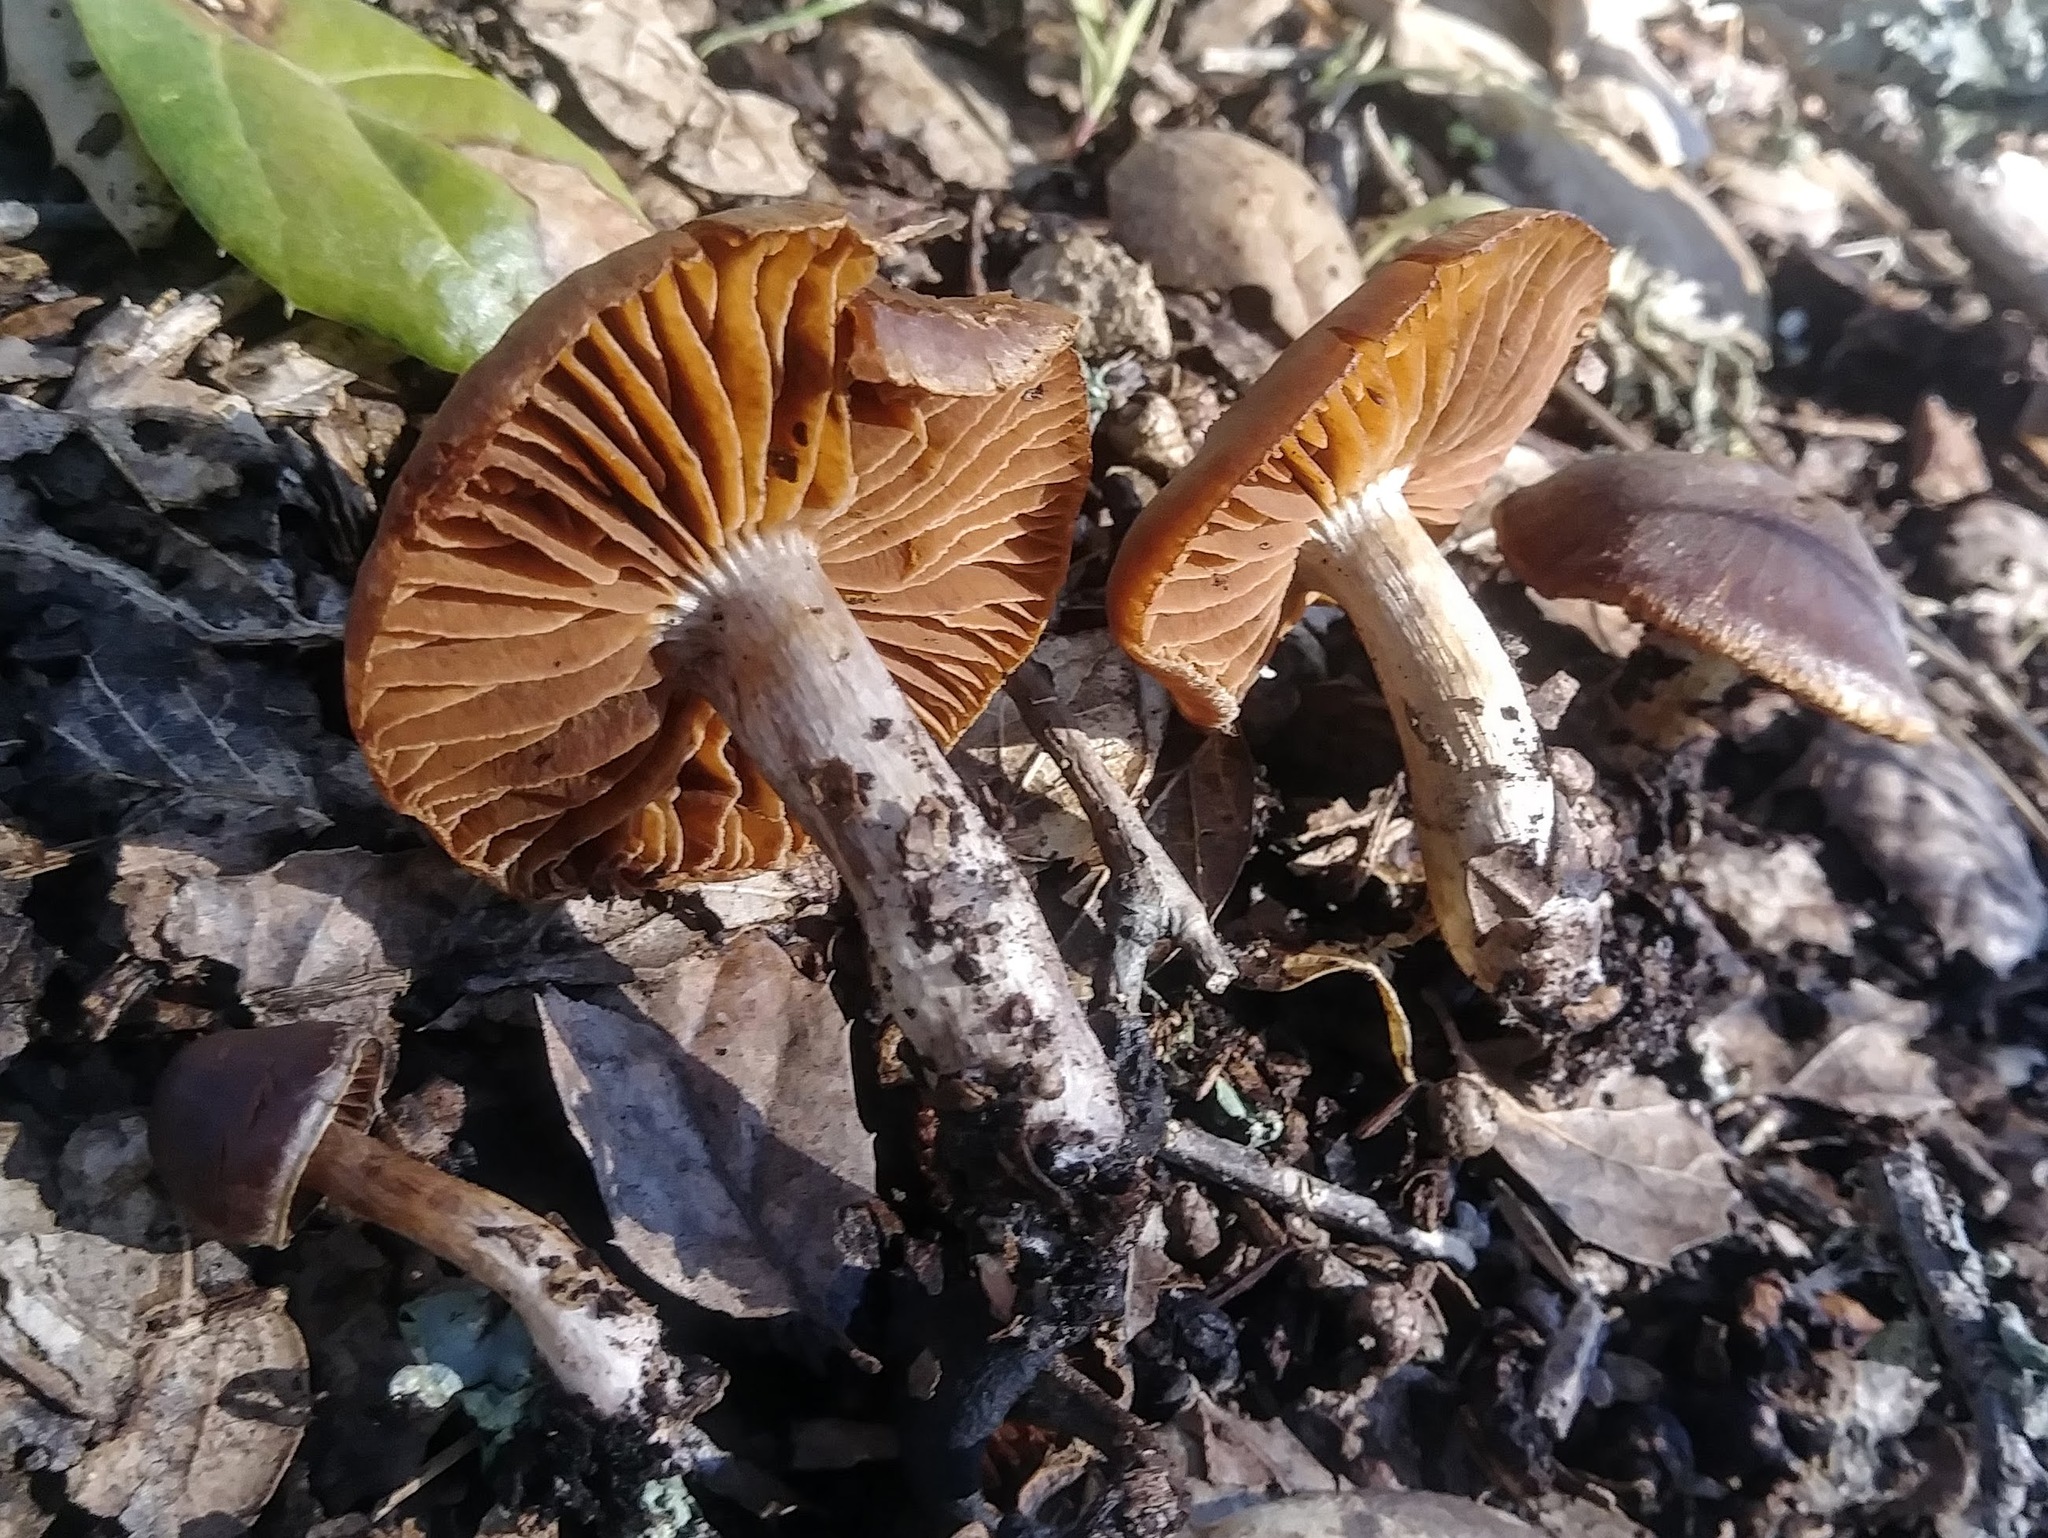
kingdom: Fungi
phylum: Basidiomycota
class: Agaricomycetes
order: Agaricales
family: Cortinariaceae
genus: Cortinarius
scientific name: Cortinarius ohlone
